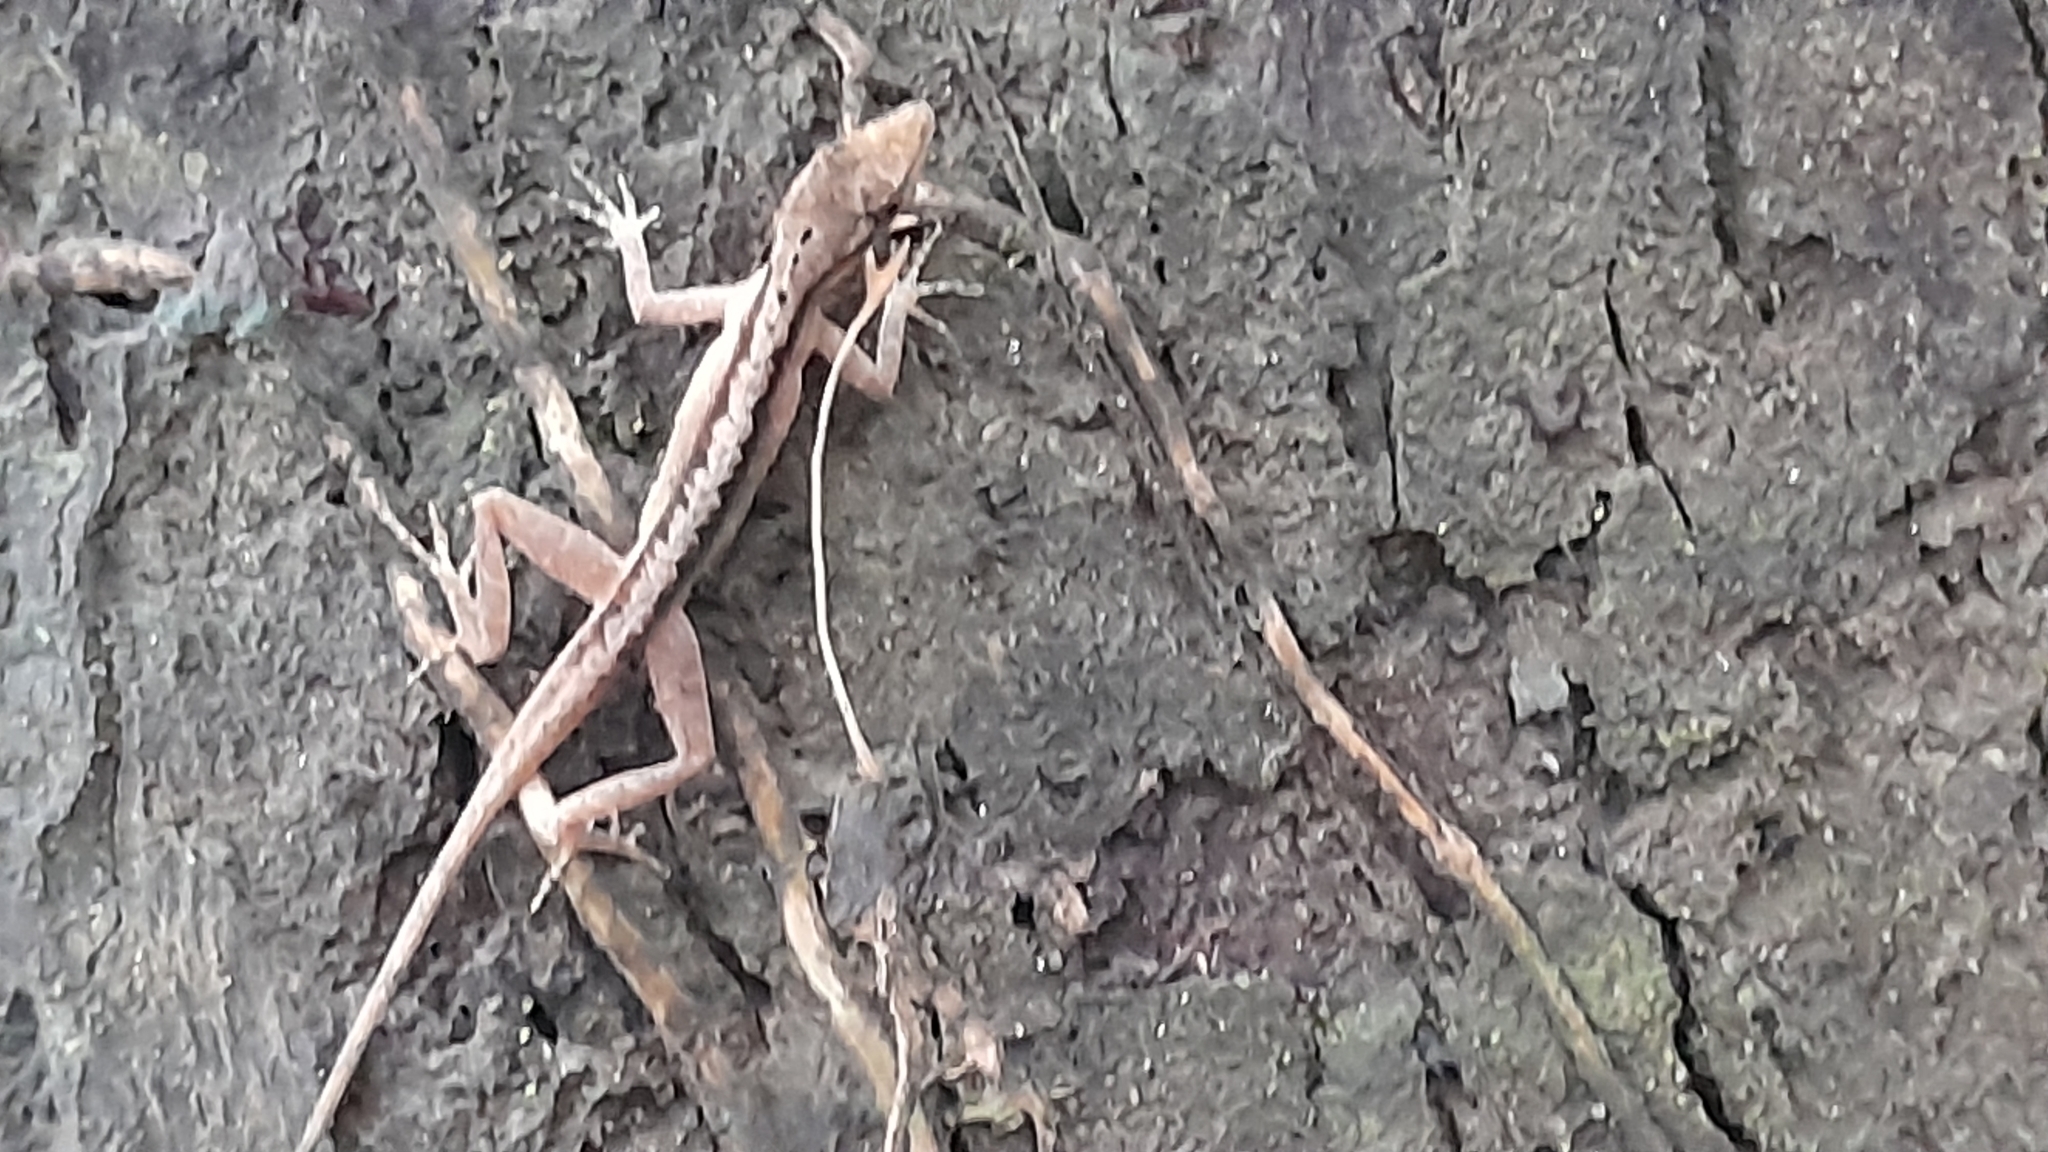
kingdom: Animalia
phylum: Chordata
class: Squamata
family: Dactyloidae
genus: Anolis
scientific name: Anolis gaigei
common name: Gaige’s anole
